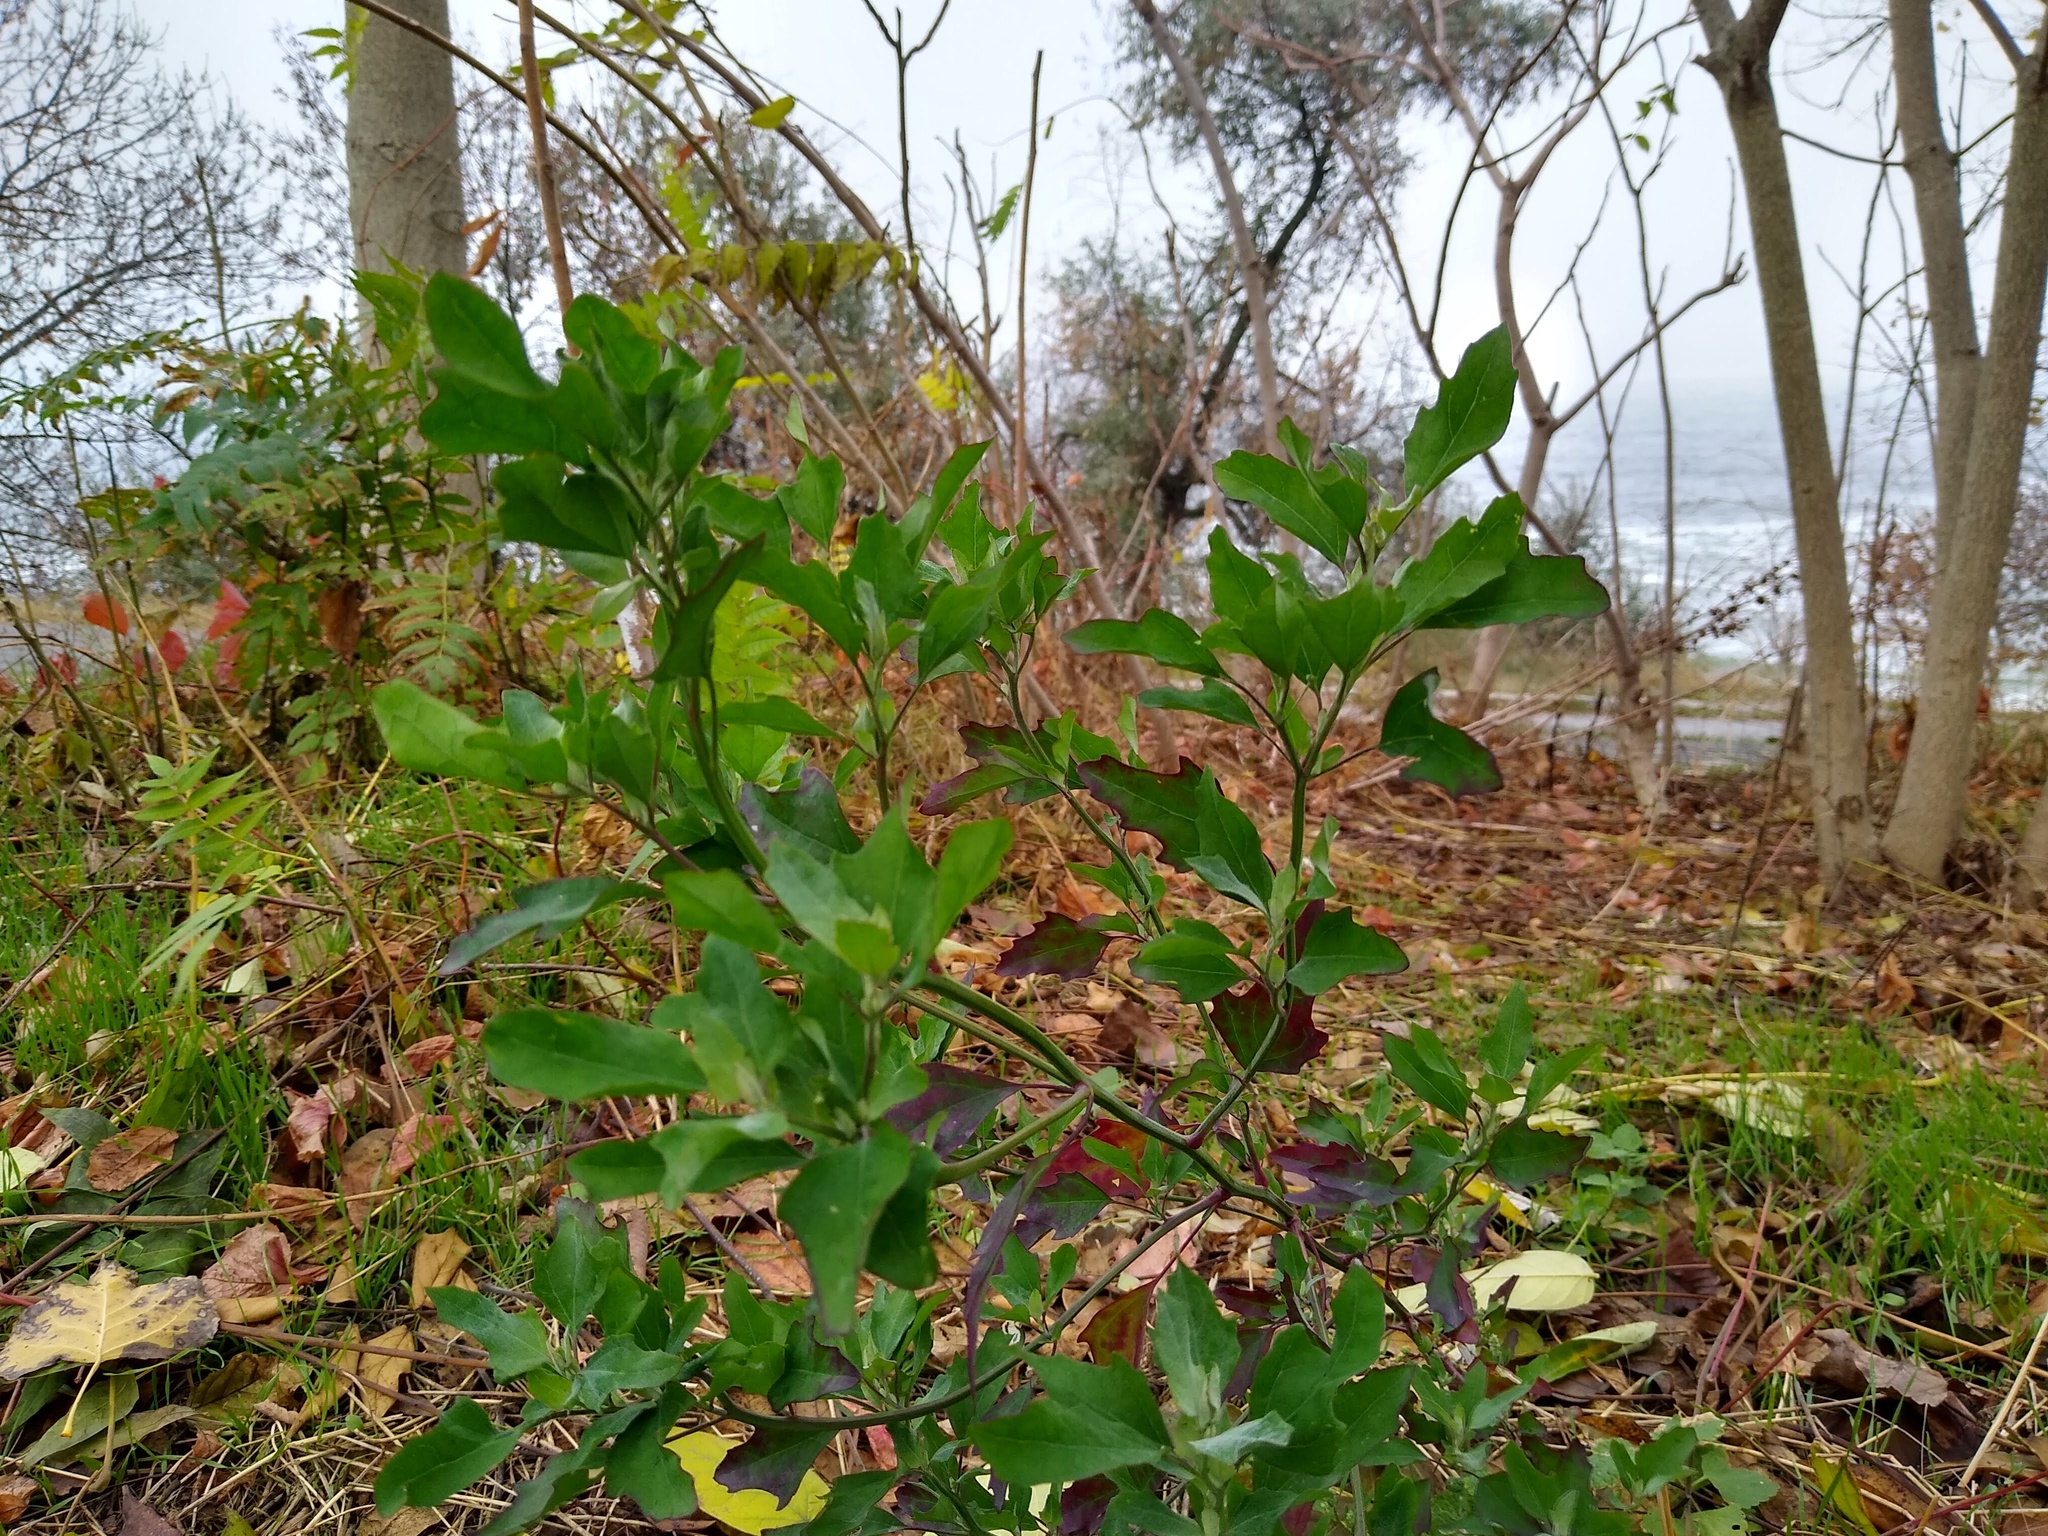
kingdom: Plantae
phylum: Tracheophyta
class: Magnoliopsida
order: Caryophyllales
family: Amaranthaceae
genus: Chenopodium
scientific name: Chenopodium album
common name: Fat-hen
